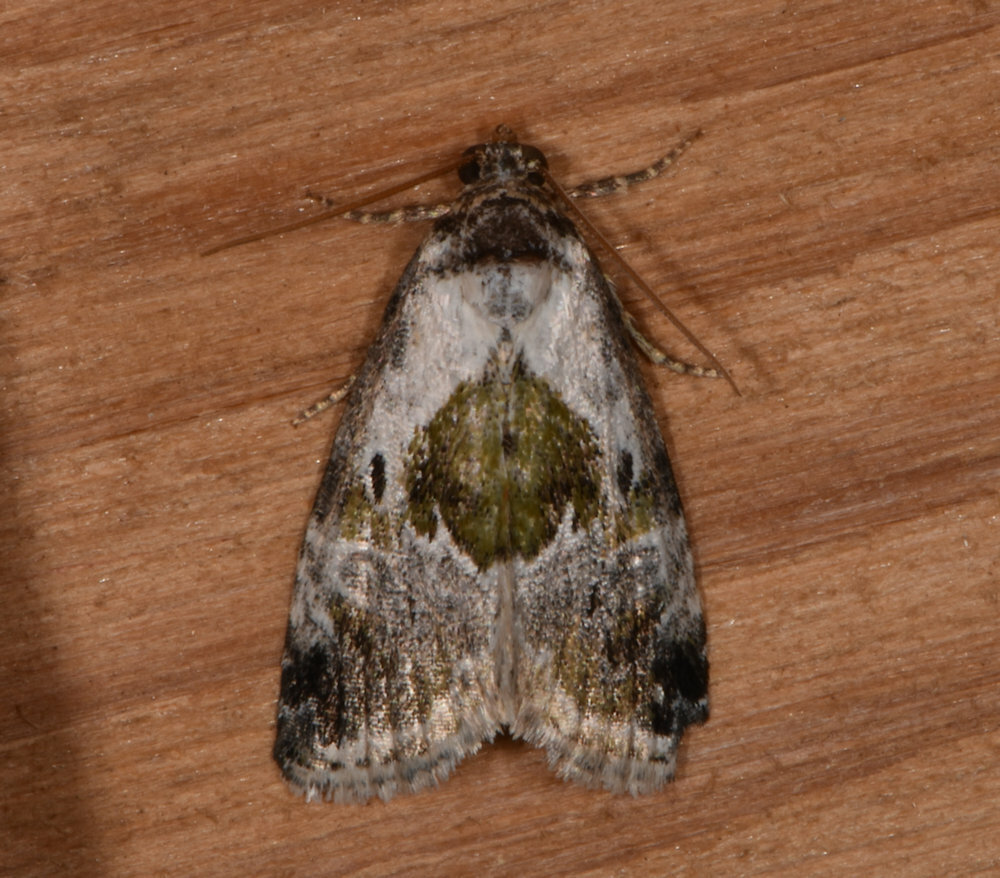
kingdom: Animalia
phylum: Arthropoda
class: Insecta
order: Lepidoptera
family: Noctuidae
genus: Maliattha
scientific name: Maliattha synochitis
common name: Black-dotted glyph
